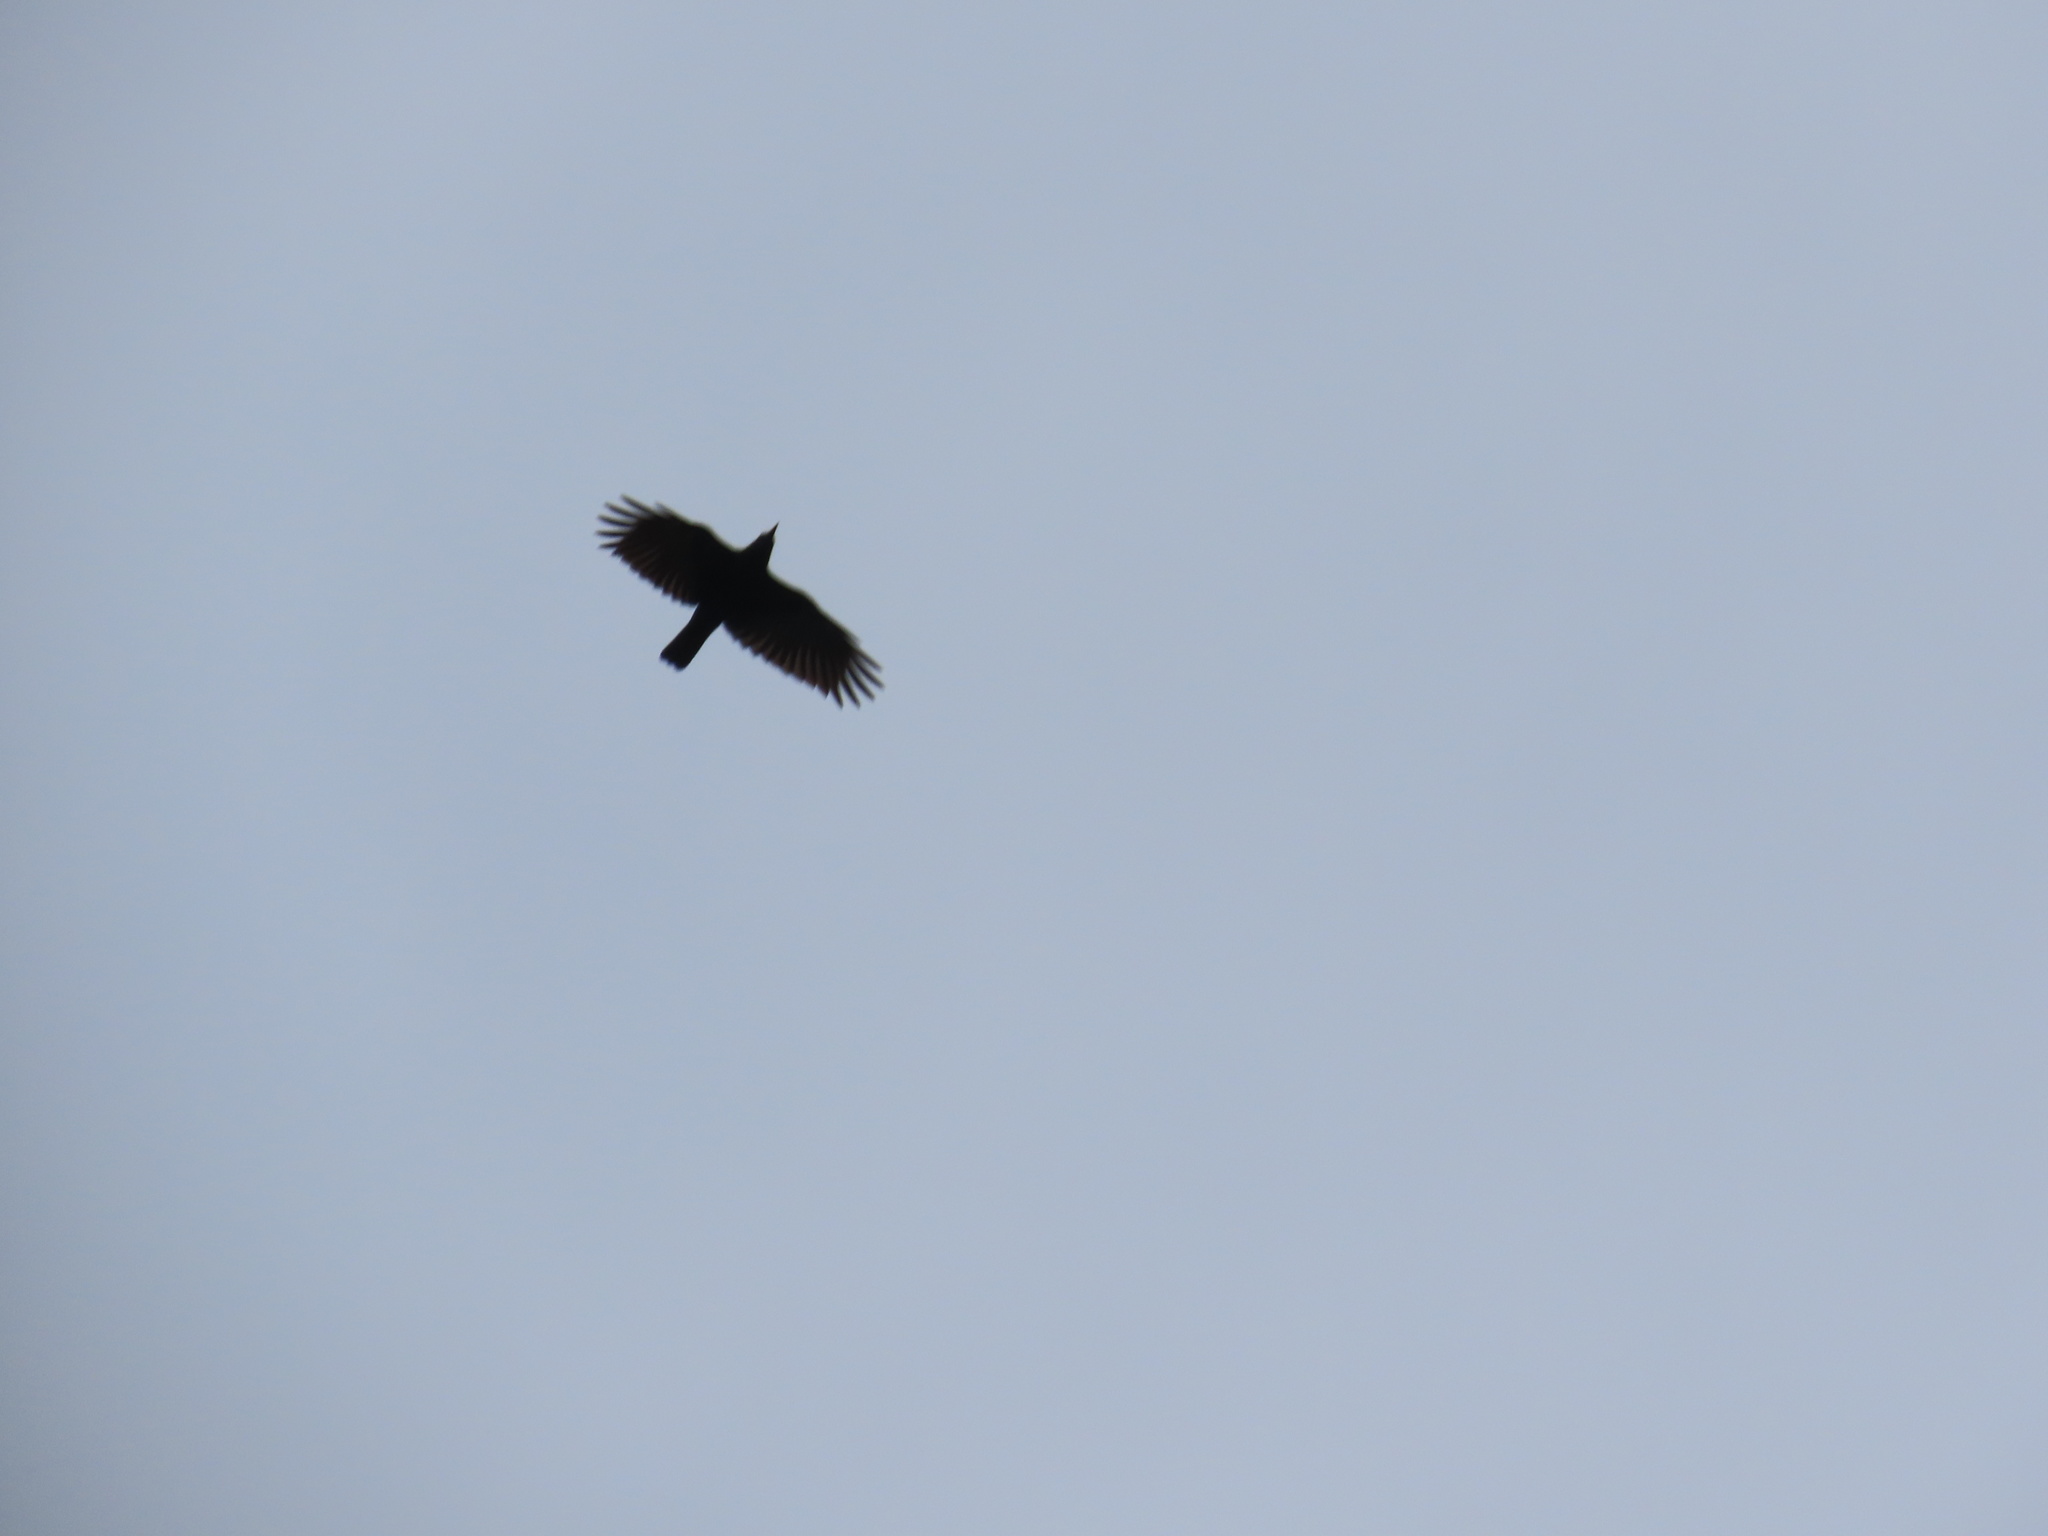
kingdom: Animalia
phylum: Chordata
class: Aves
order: Passeriformes
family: Corvidae
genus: Corvus
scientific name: Corvus brachyrhynchos
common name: American crow
